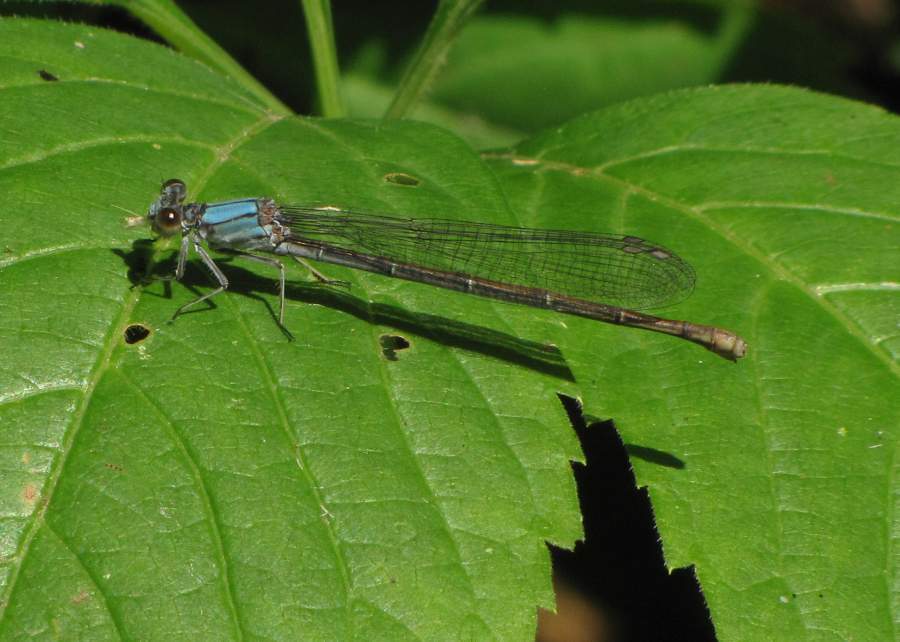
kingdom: Animalia
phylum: Arthropoda
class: Insecta
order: Odonata
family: Coenagrionidae
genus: Argia
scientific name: Argia moesta
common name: Powdered dancer
